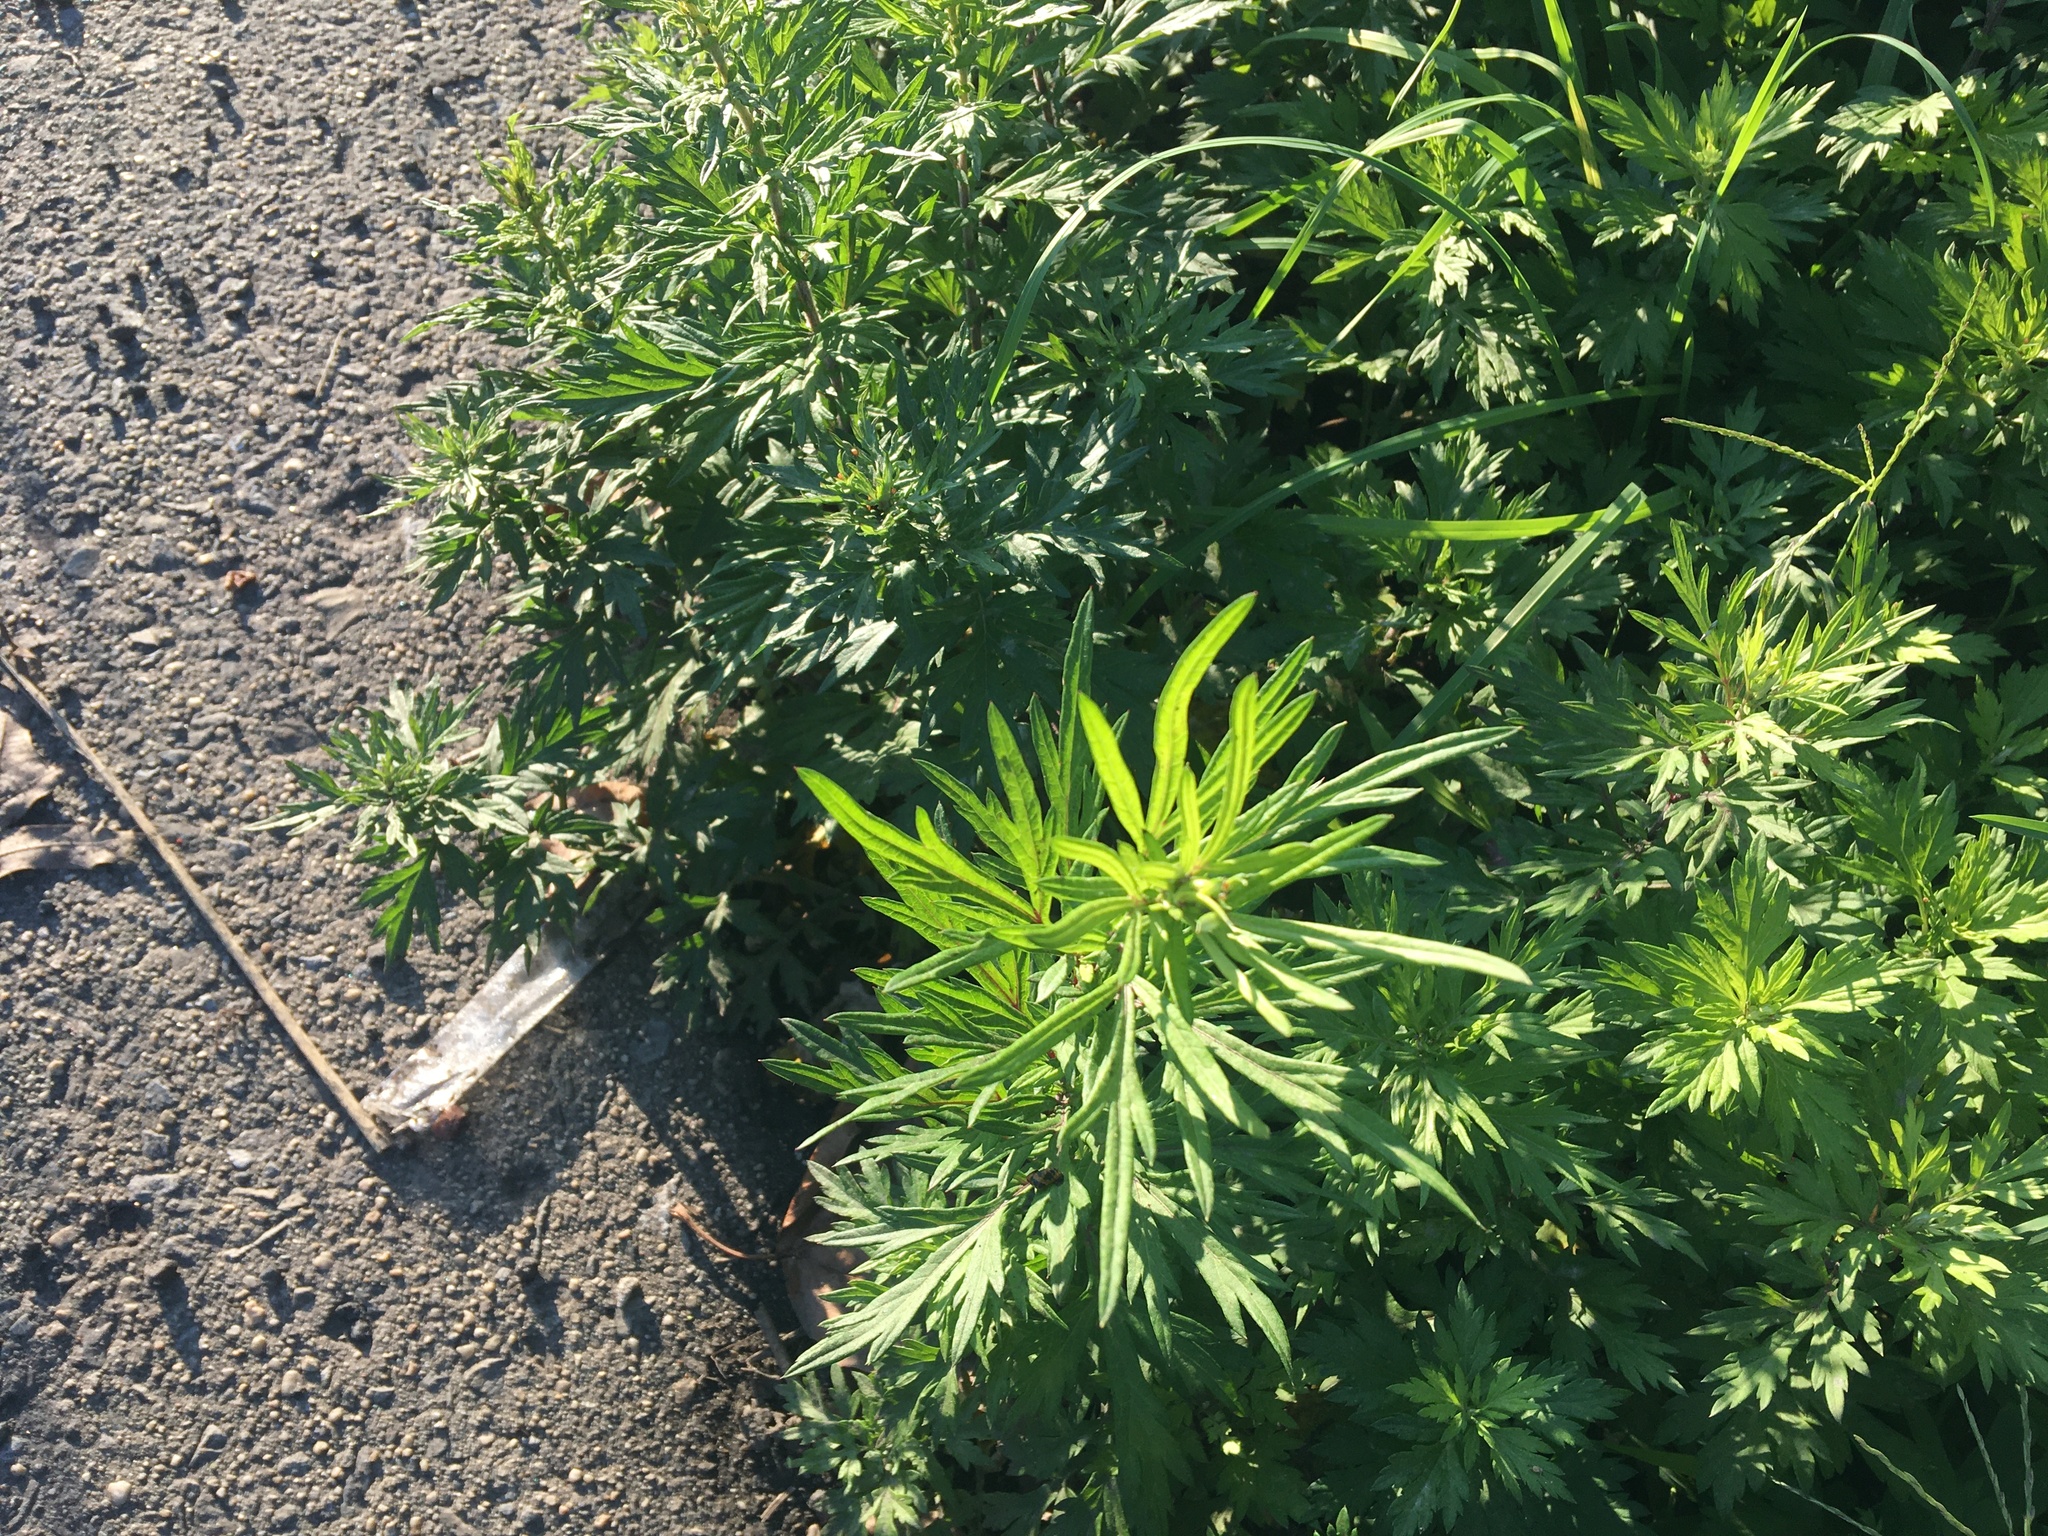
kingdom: Plantae
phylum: Tracheophyta
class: Magnoliopsida
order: Asterales
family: Asteraceae
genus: Artemisia
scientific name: Artemisia vulgaris
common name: Mugwort
